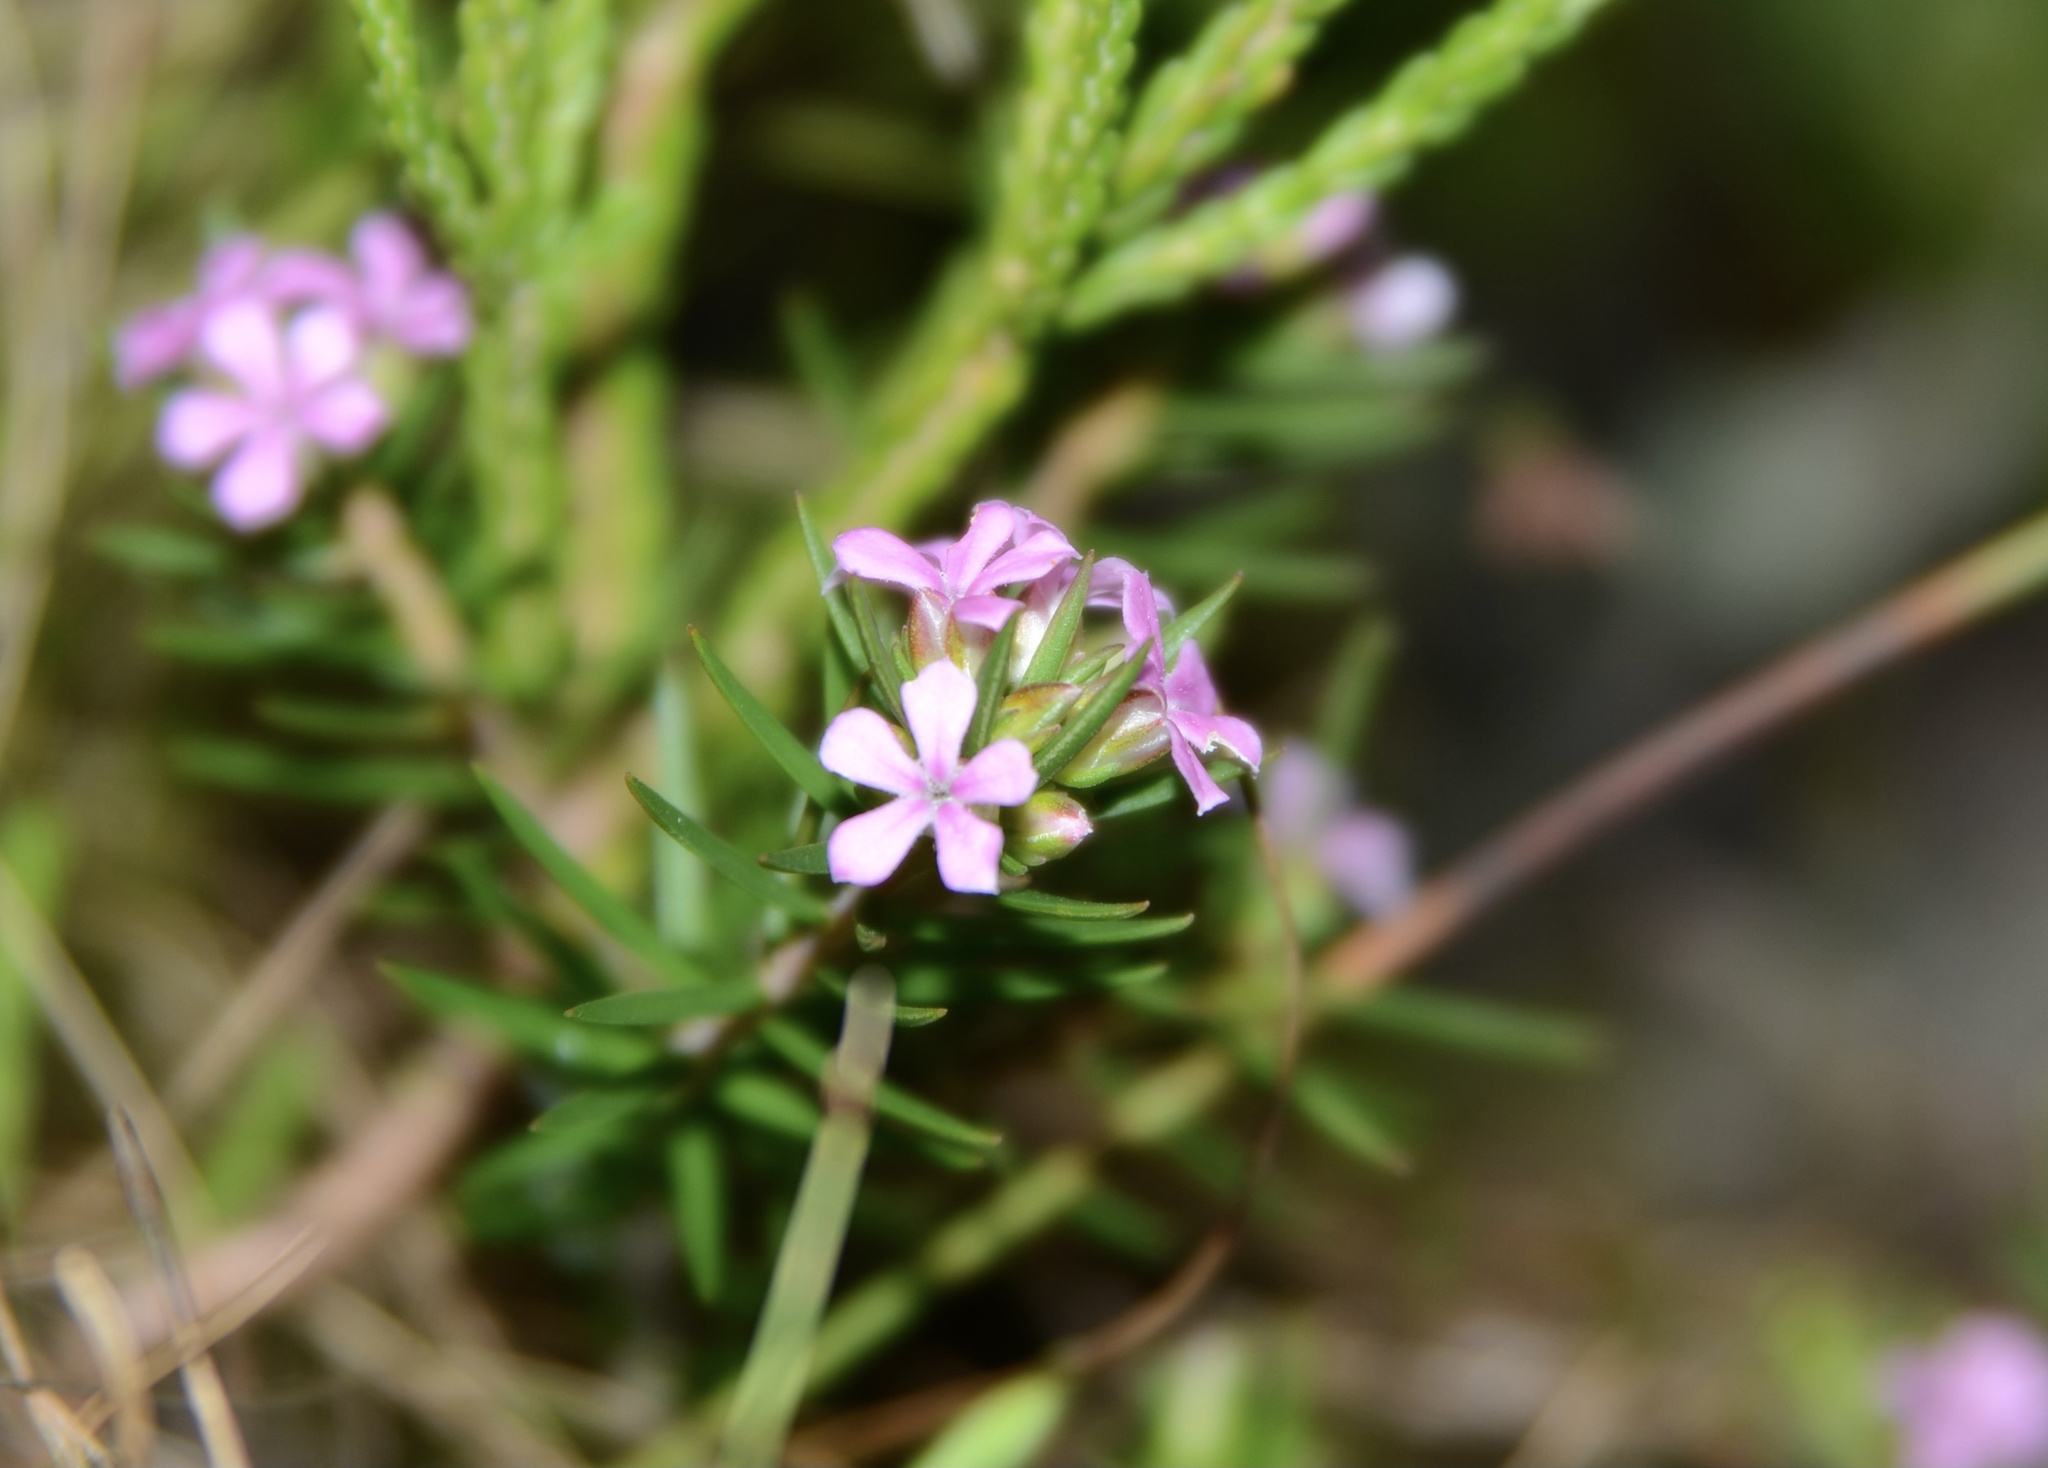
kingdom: Plantae
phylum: Tracheophyta
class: Magnoliopsida
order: Sapindales
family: Rutaceae
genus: Acmadenia
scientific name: Acmadenia obtusata
